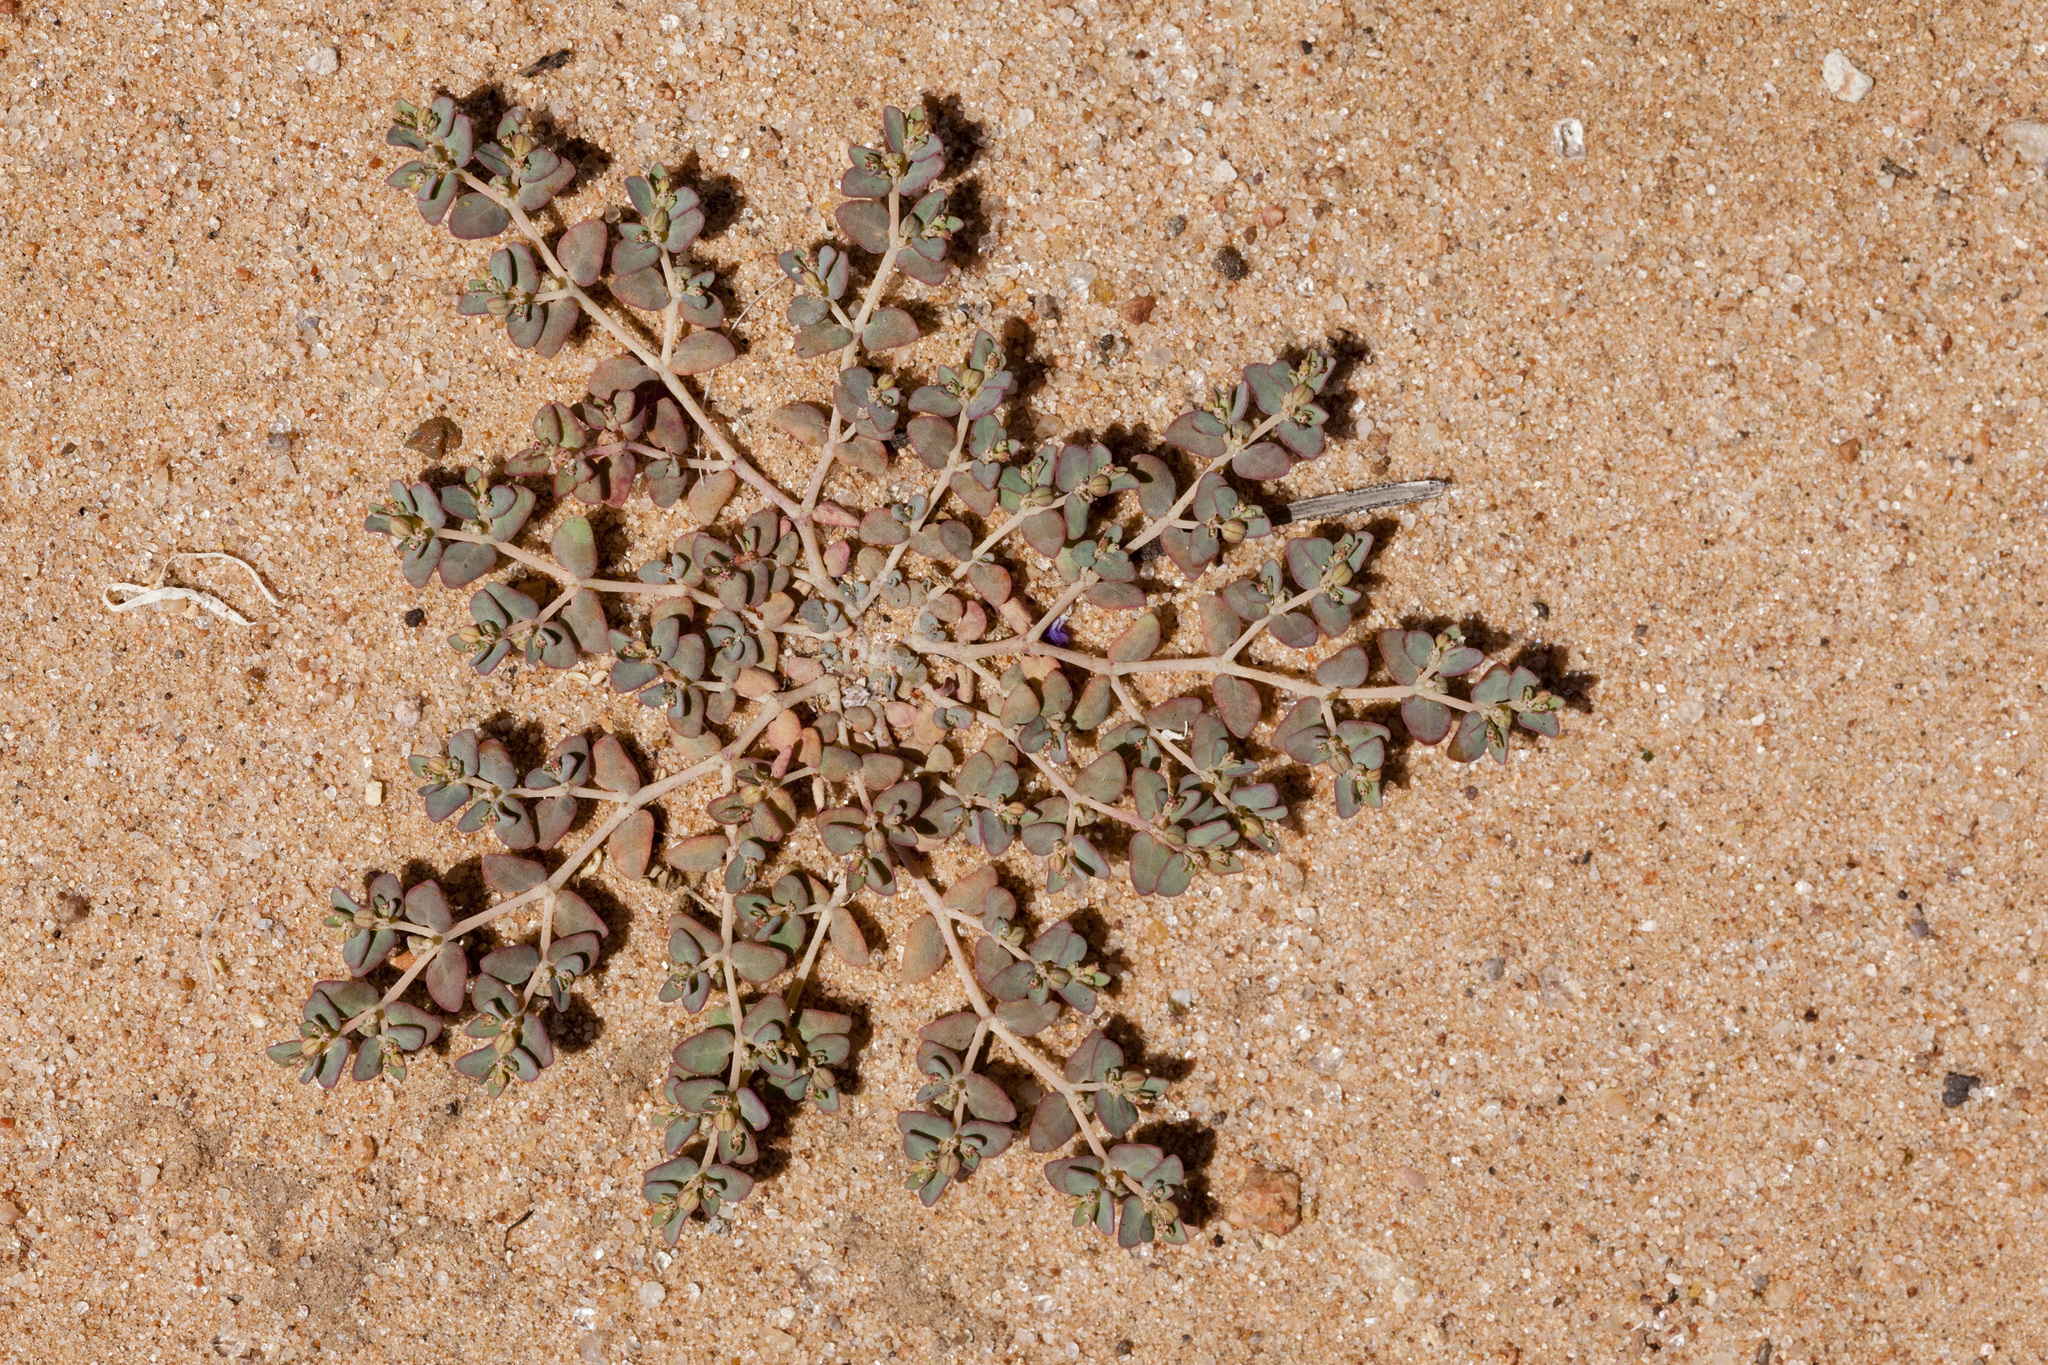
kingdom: Plantae
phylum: Tracheophyta
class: Magnoliopsida
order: Malpighiales
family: Euphorbiaceae
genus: Euphorbia
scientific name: Euphorbia micromera
